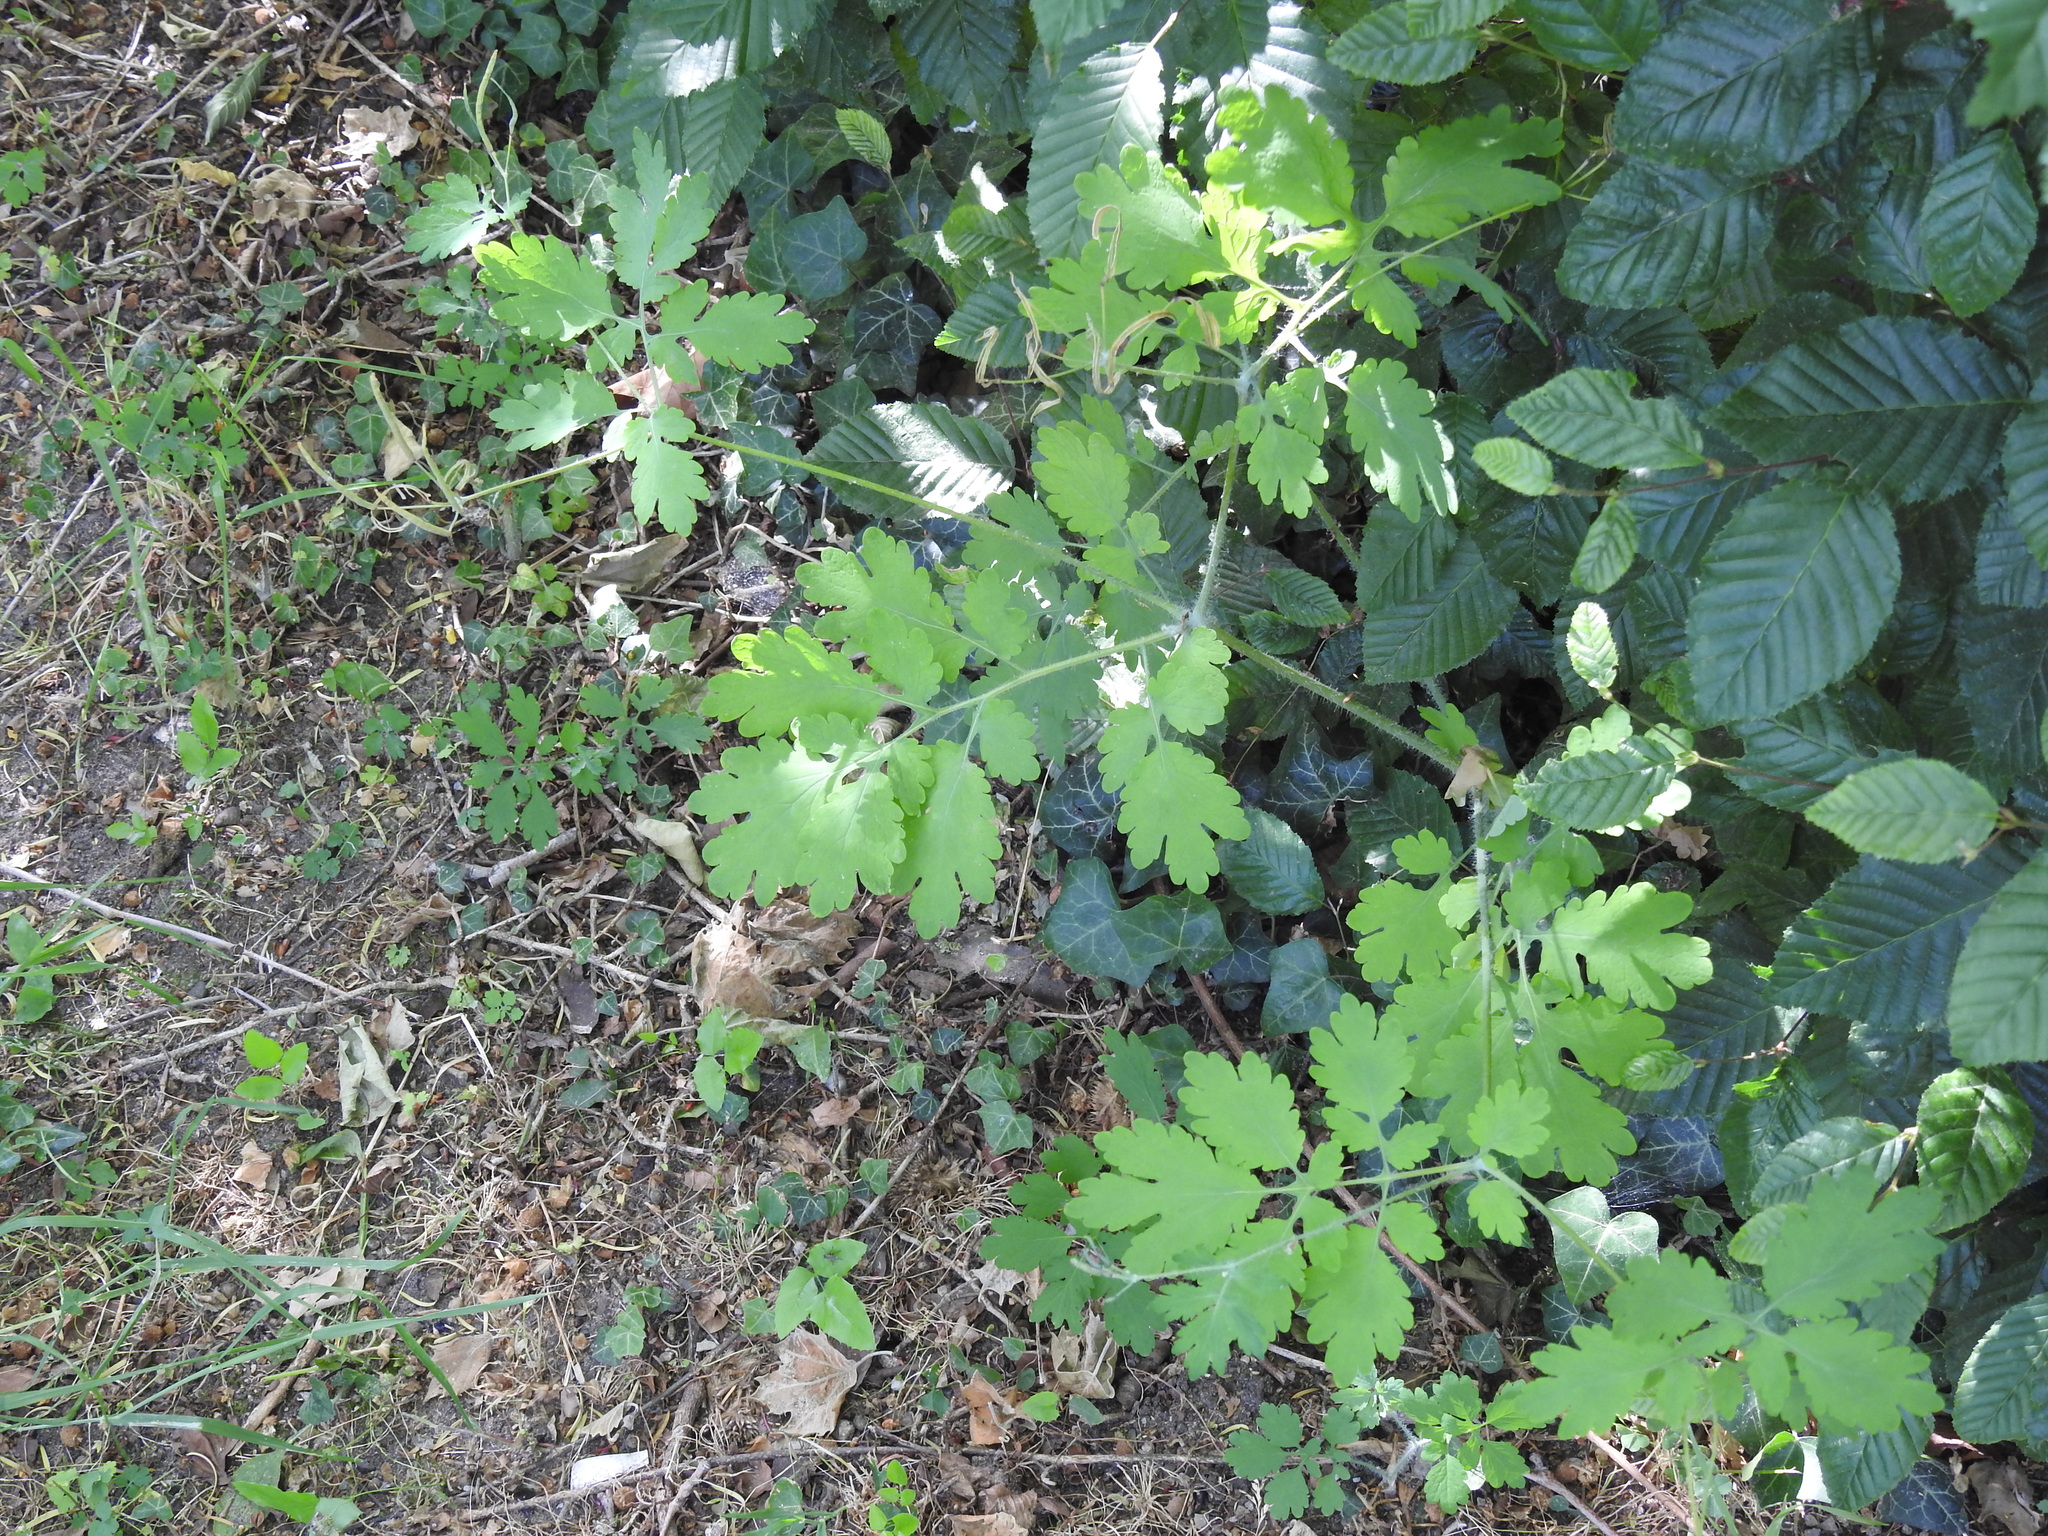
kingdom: Plantae
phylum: Tracheophyta
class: Magnoliopsida
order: Ranunculales
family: Papaveraceae
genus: Chelidonium
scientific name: Chelidonium majus
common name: Greater celandine
